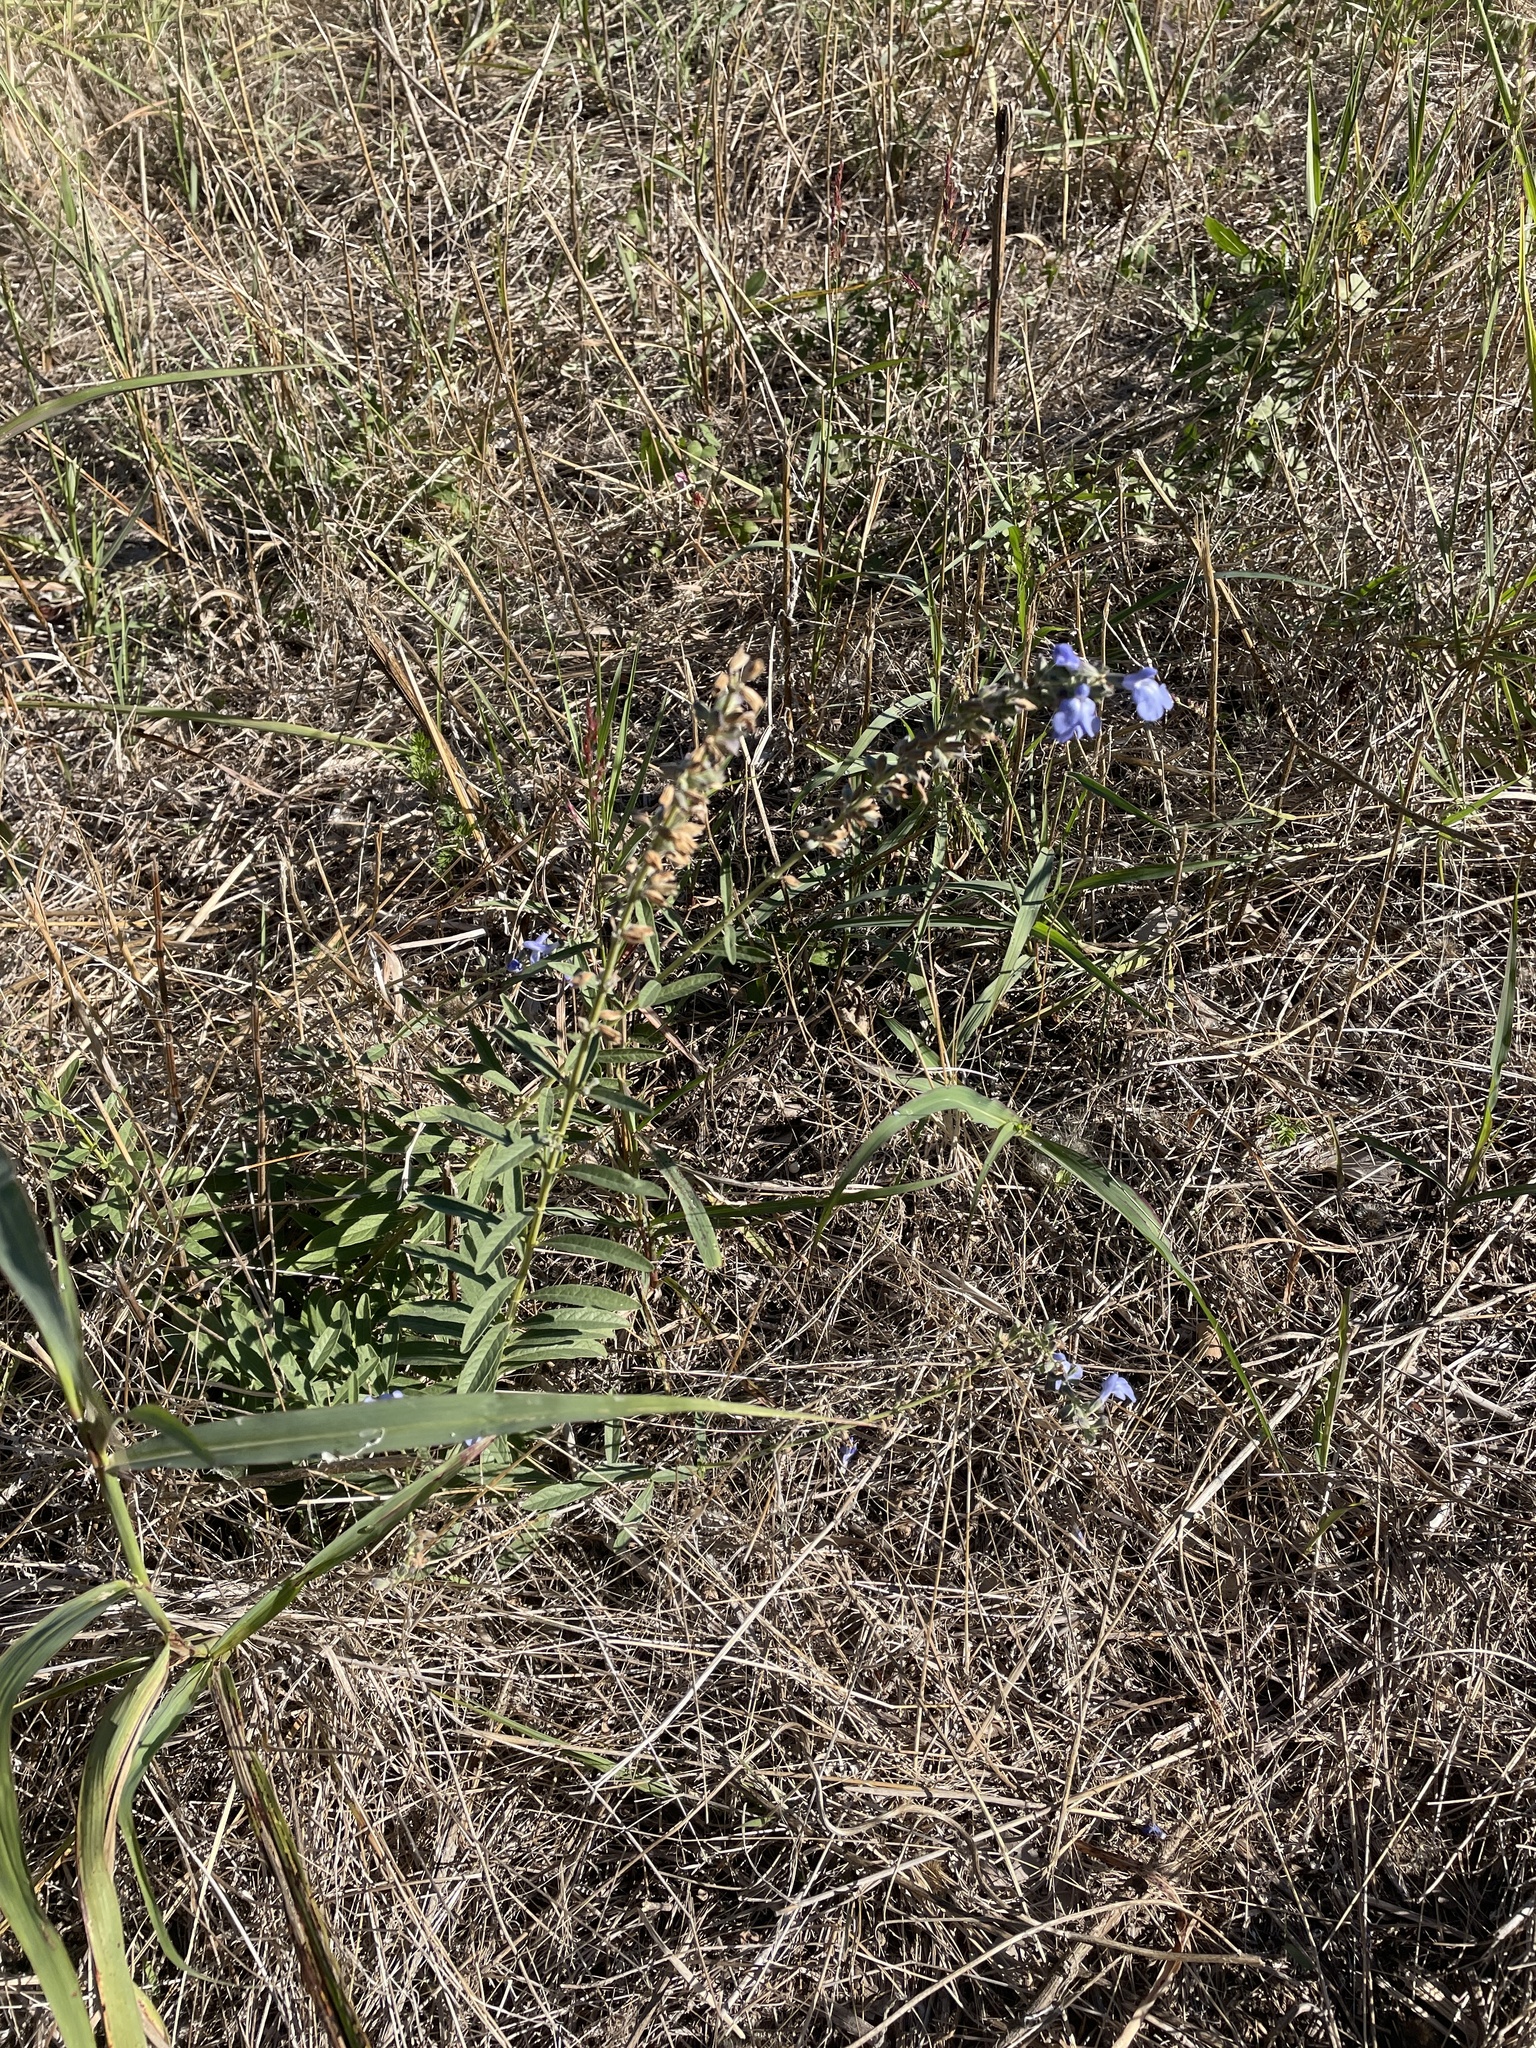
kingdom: Plantae
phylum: Tracheophyta
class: Magnoliopsida
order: Lamiales
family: Lamiaceae
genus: Salvia
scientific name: Salvia azurea
